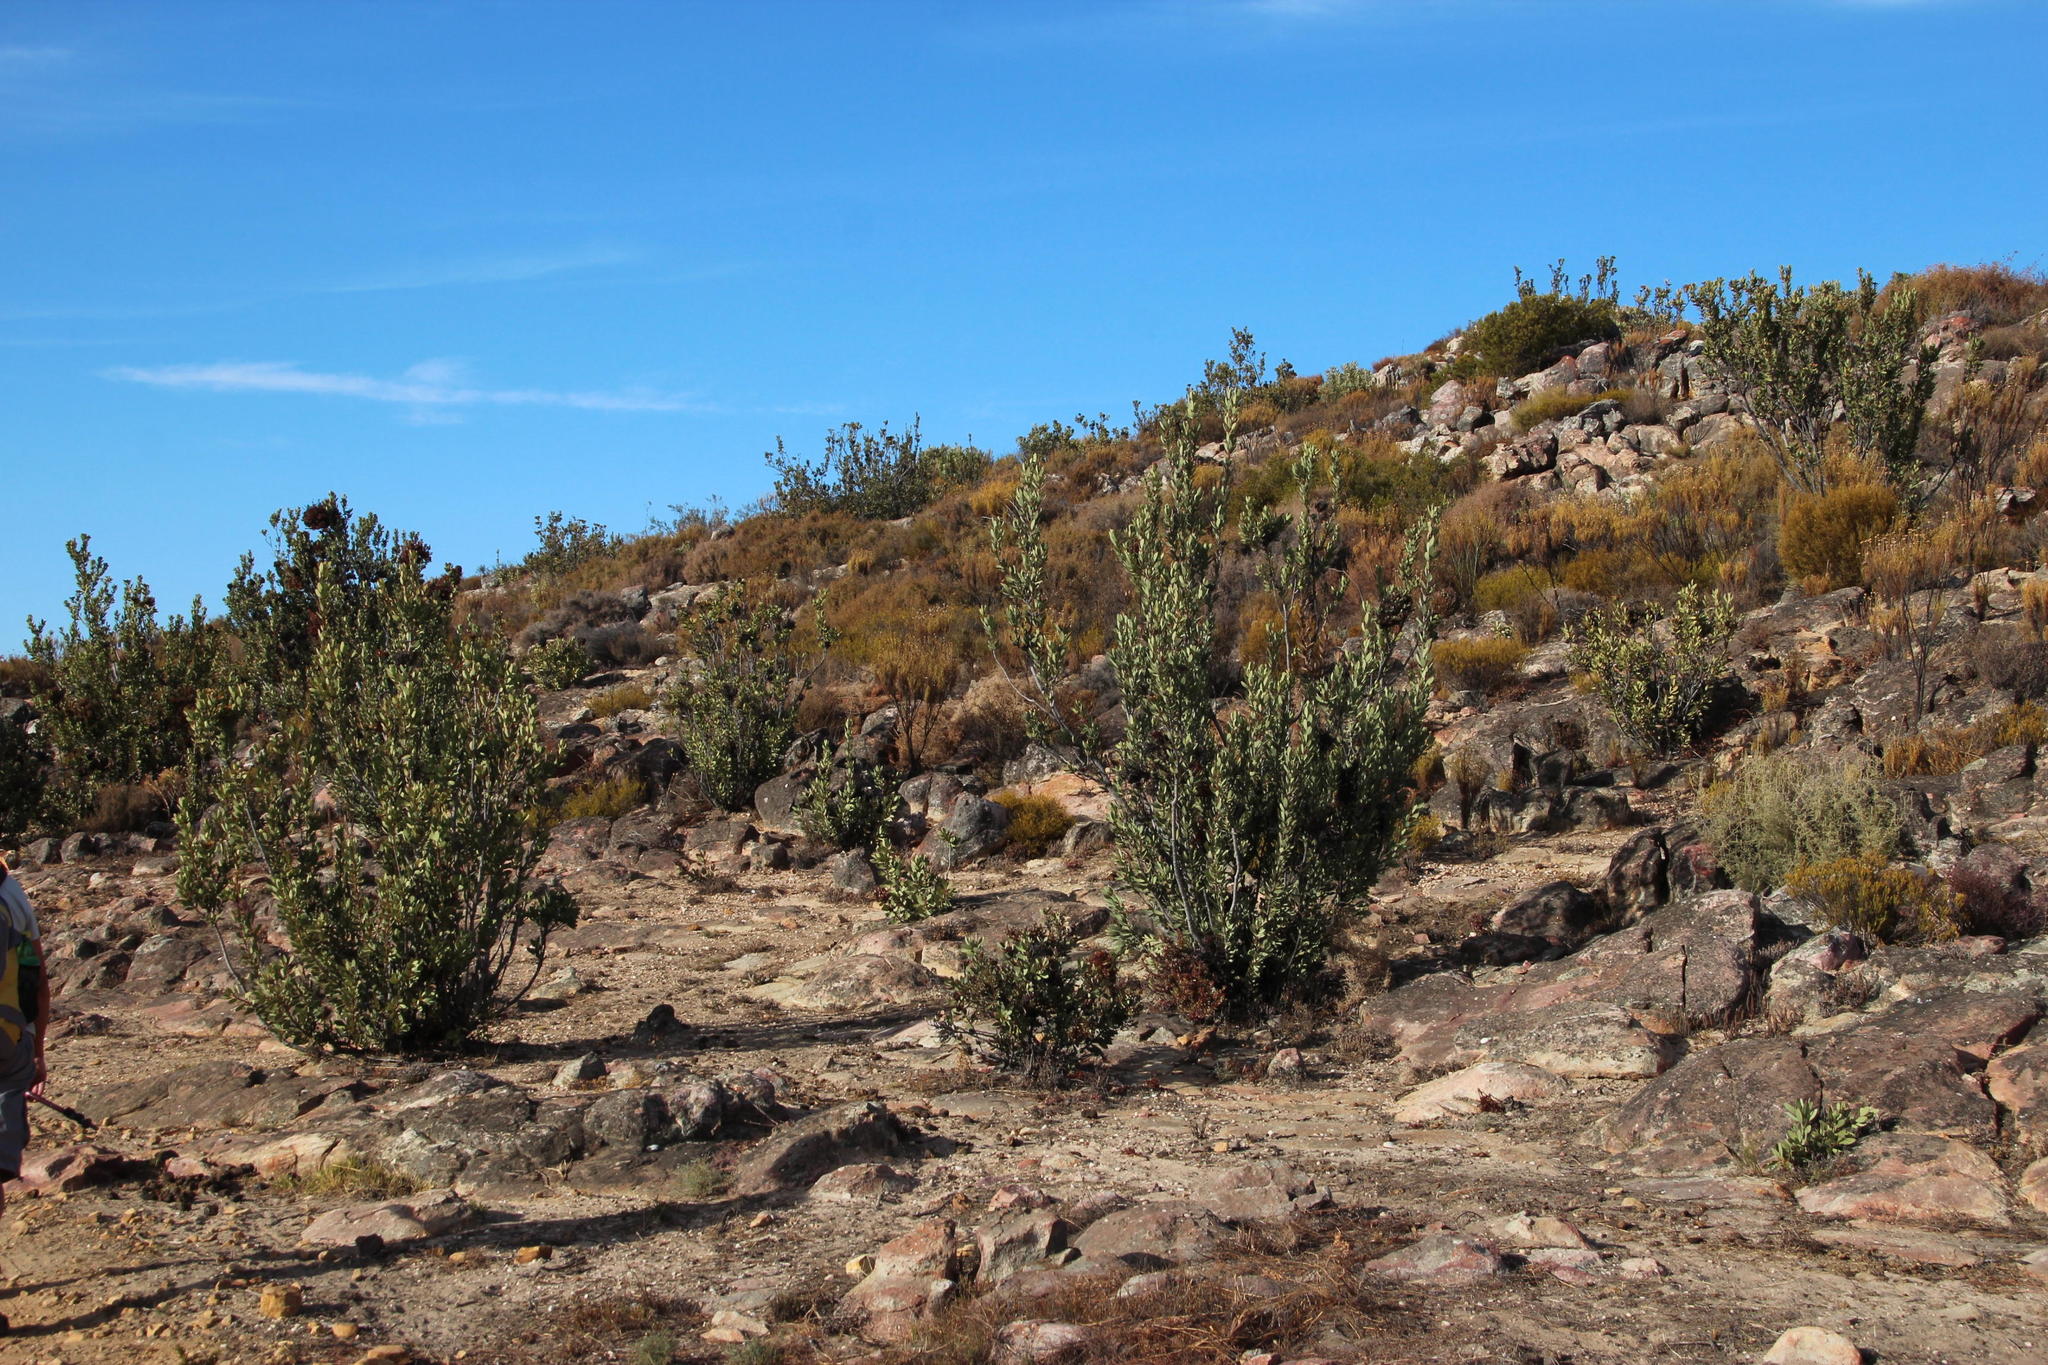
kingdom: Plantae
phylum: Tracheophyta
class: Magnoliopsida
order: Proteales
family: Proteaceae
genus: Protea
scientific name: Protea glabra
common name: Chestnut sugarbush
